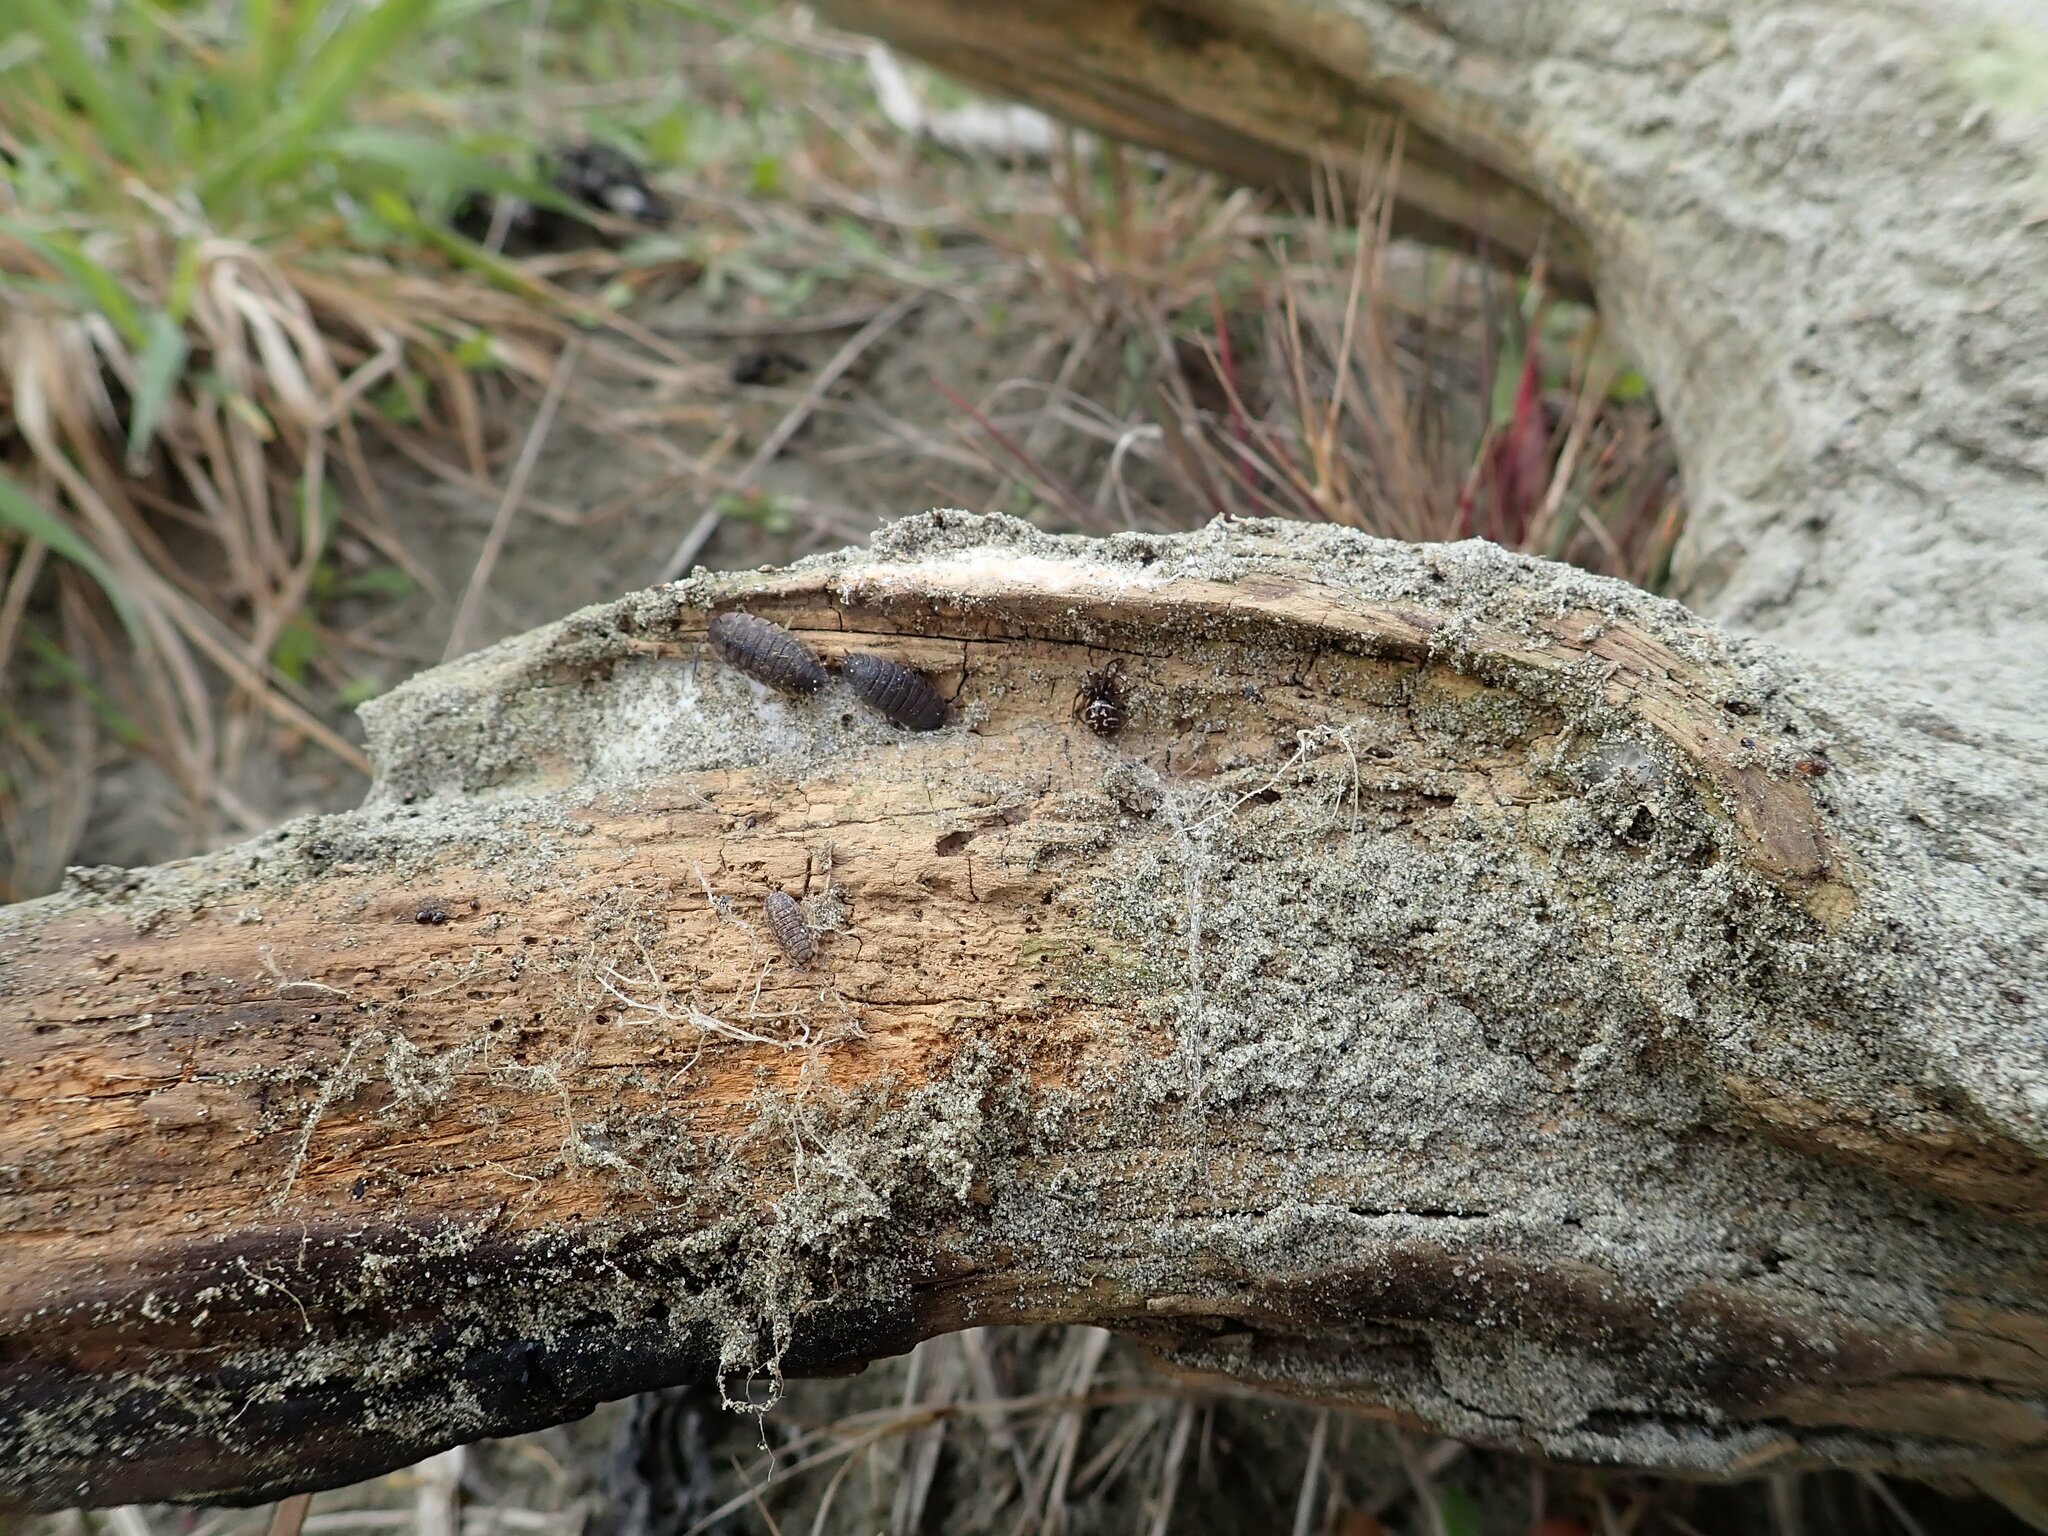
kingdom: Animalia
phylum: Arthropoda
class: Arachnida
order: Araneae
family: Theridiidae
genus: Steatoda
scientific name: Steatoda capensis
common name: Cobweb weaver
